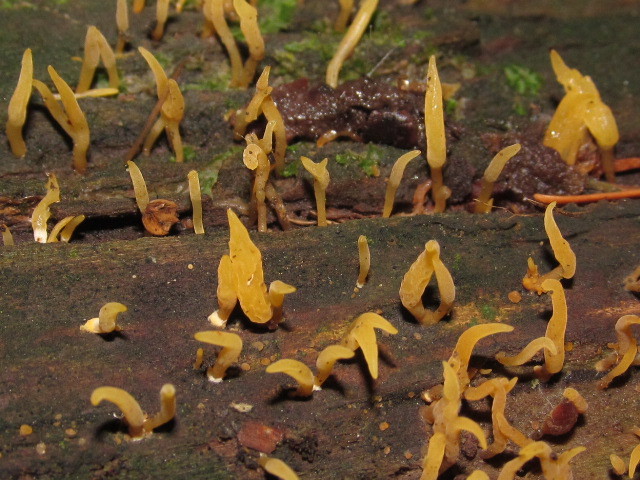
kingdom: Fungi
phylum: Basidiomycota
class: Dacrymycetes
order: Dacrymycetales
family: Dacrymycetaceae
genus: Calocera
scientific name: Calocera cornea
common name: Small stagshorn
